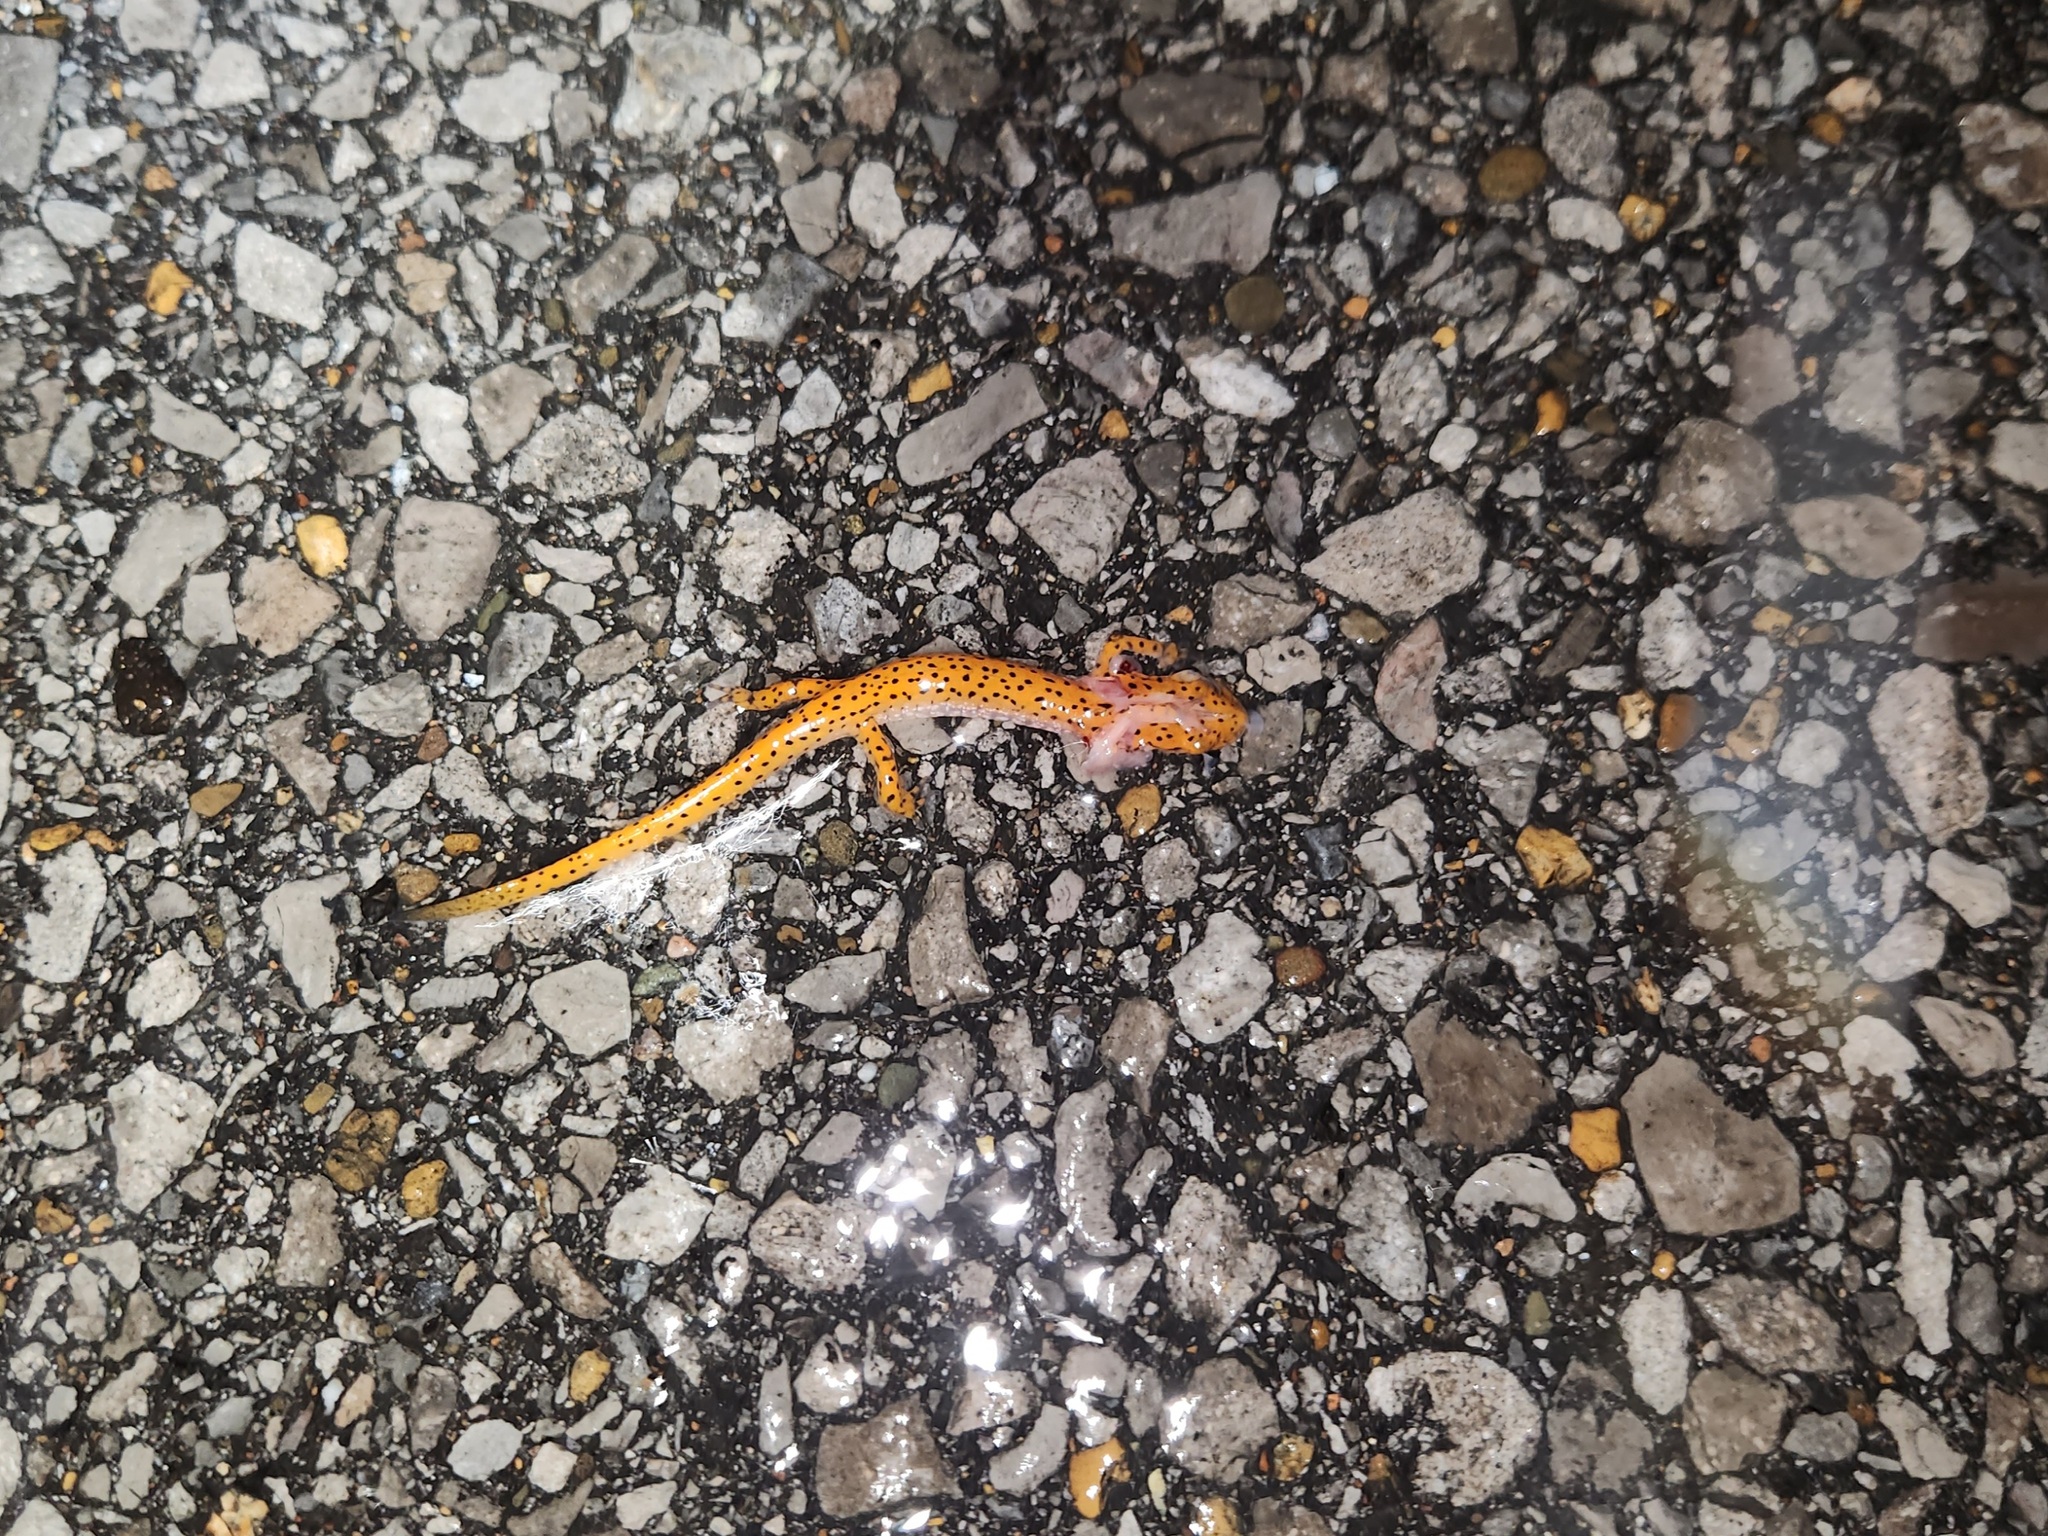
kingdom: Animalia
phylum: Chordata
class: Amphibia
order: Caudata
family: Plethodontidae
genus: Eurycea
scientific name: Eurycea lucifuga
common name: Cave salamander
